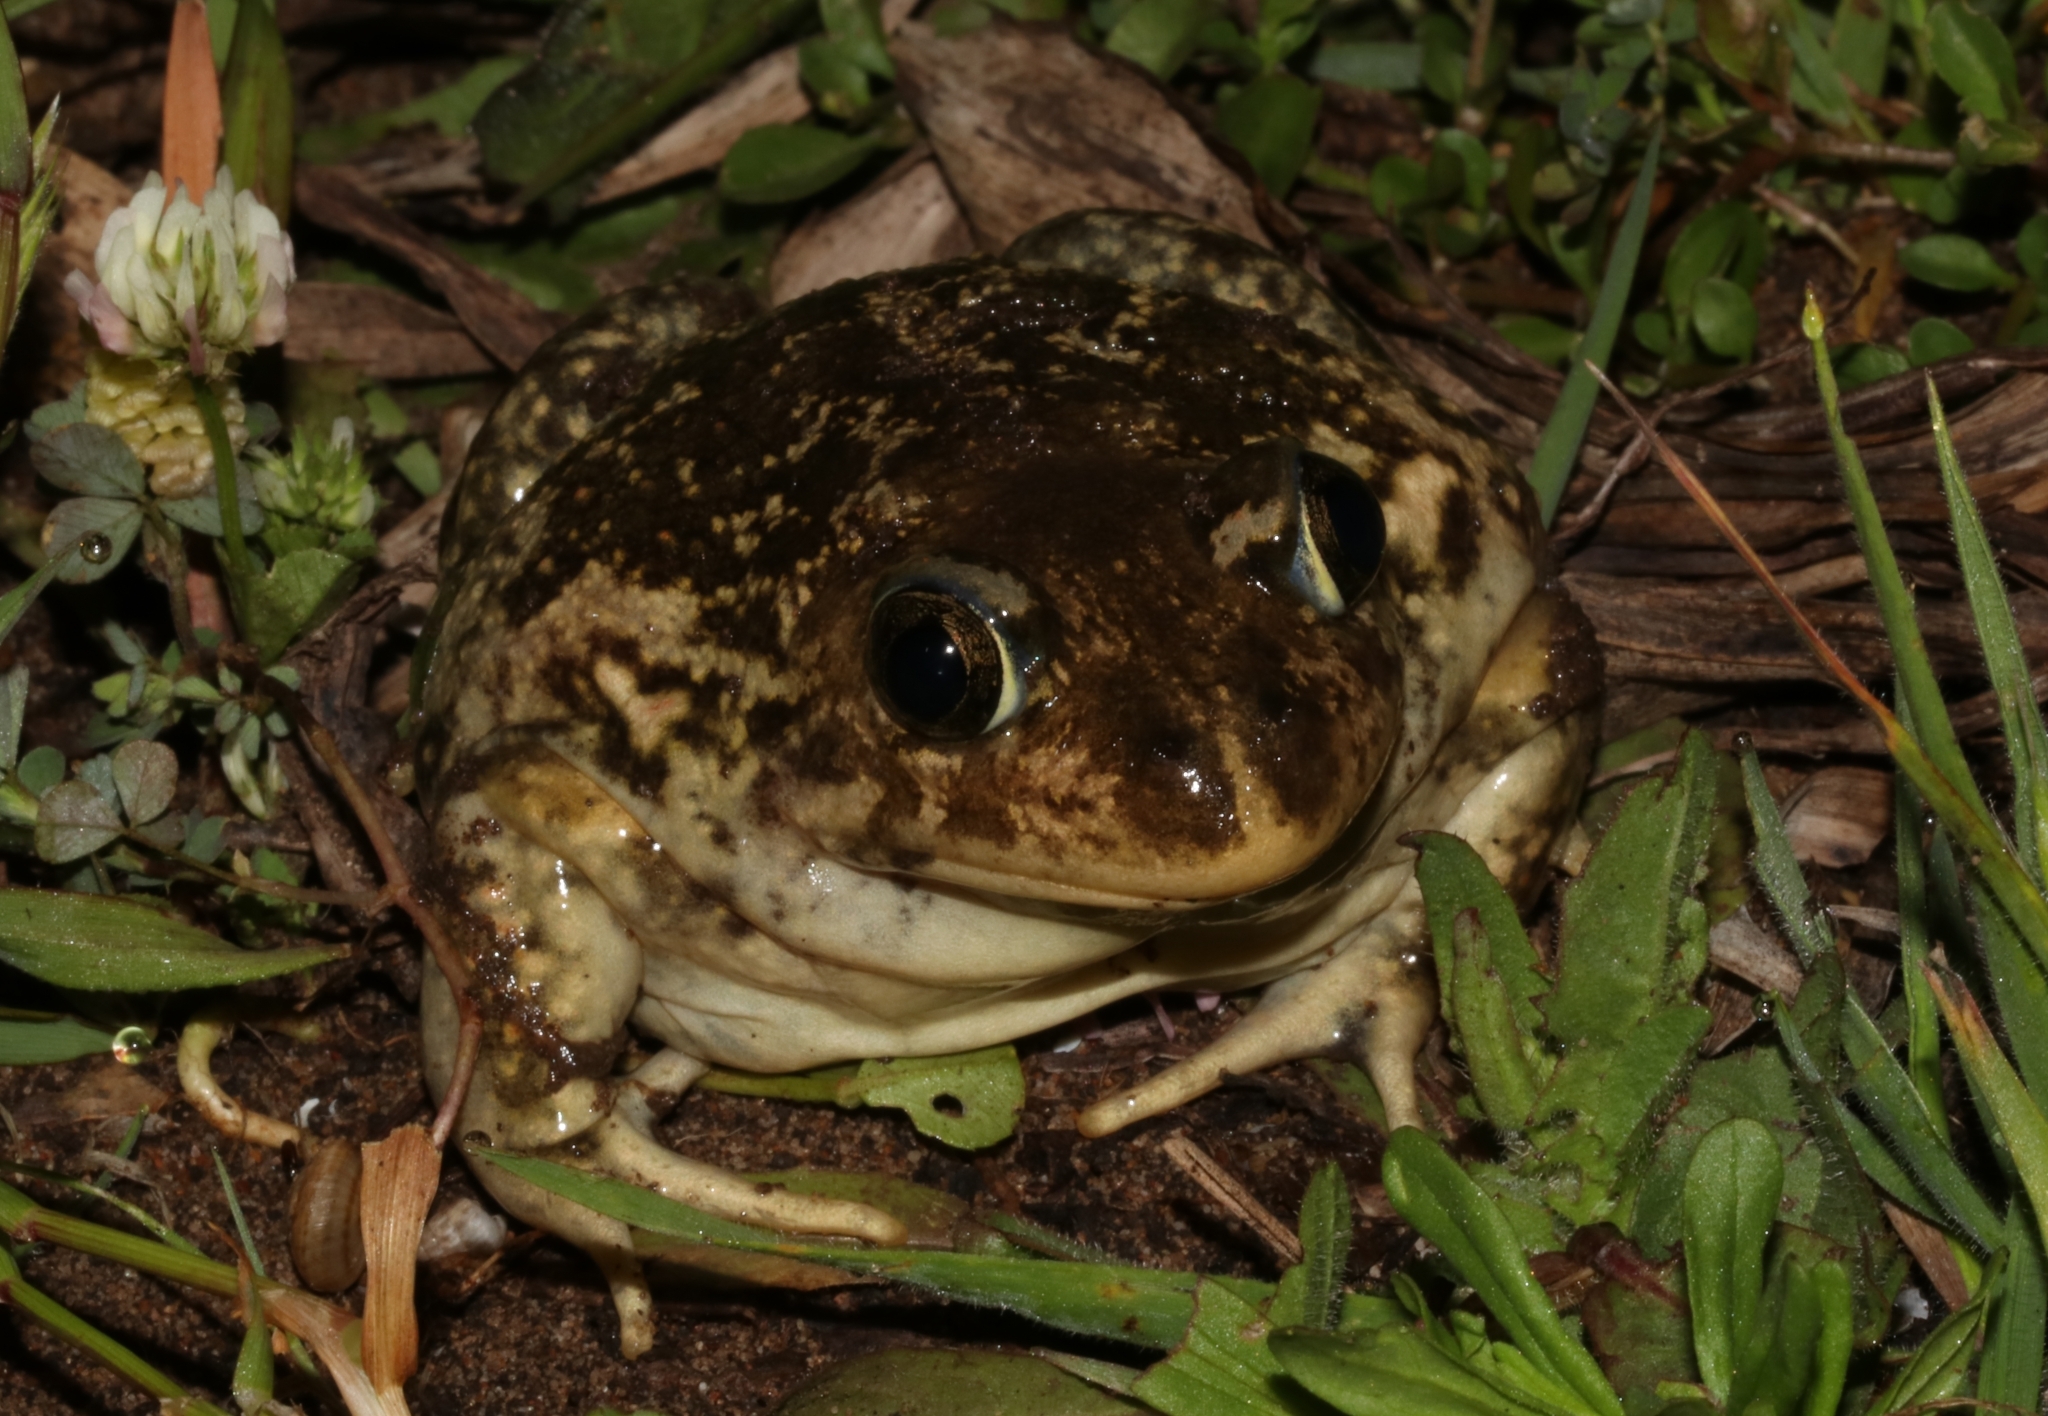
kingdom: Animalia
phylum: Chordata
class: Amphibia
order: Anura
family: Pelobatidae
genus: Pelobates
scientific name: Pelobates balcanicus
